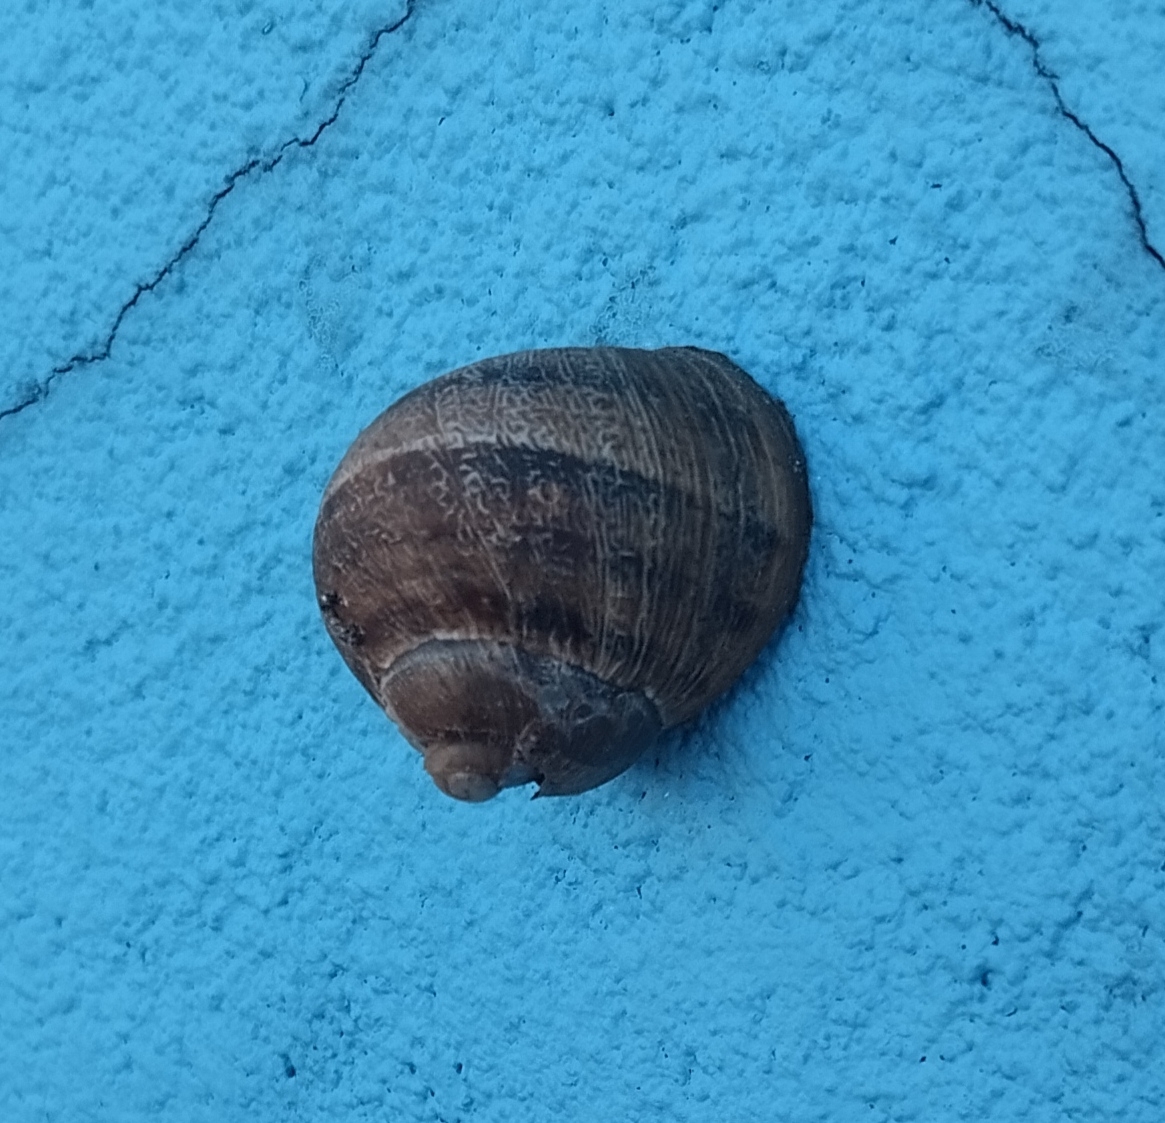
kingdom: Animalia
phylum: Mollusca
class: Gastropoda
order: Stylommatophora
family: Helicidae
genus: Cornu
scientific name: Cornu aspersum
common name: Brown garden snail
